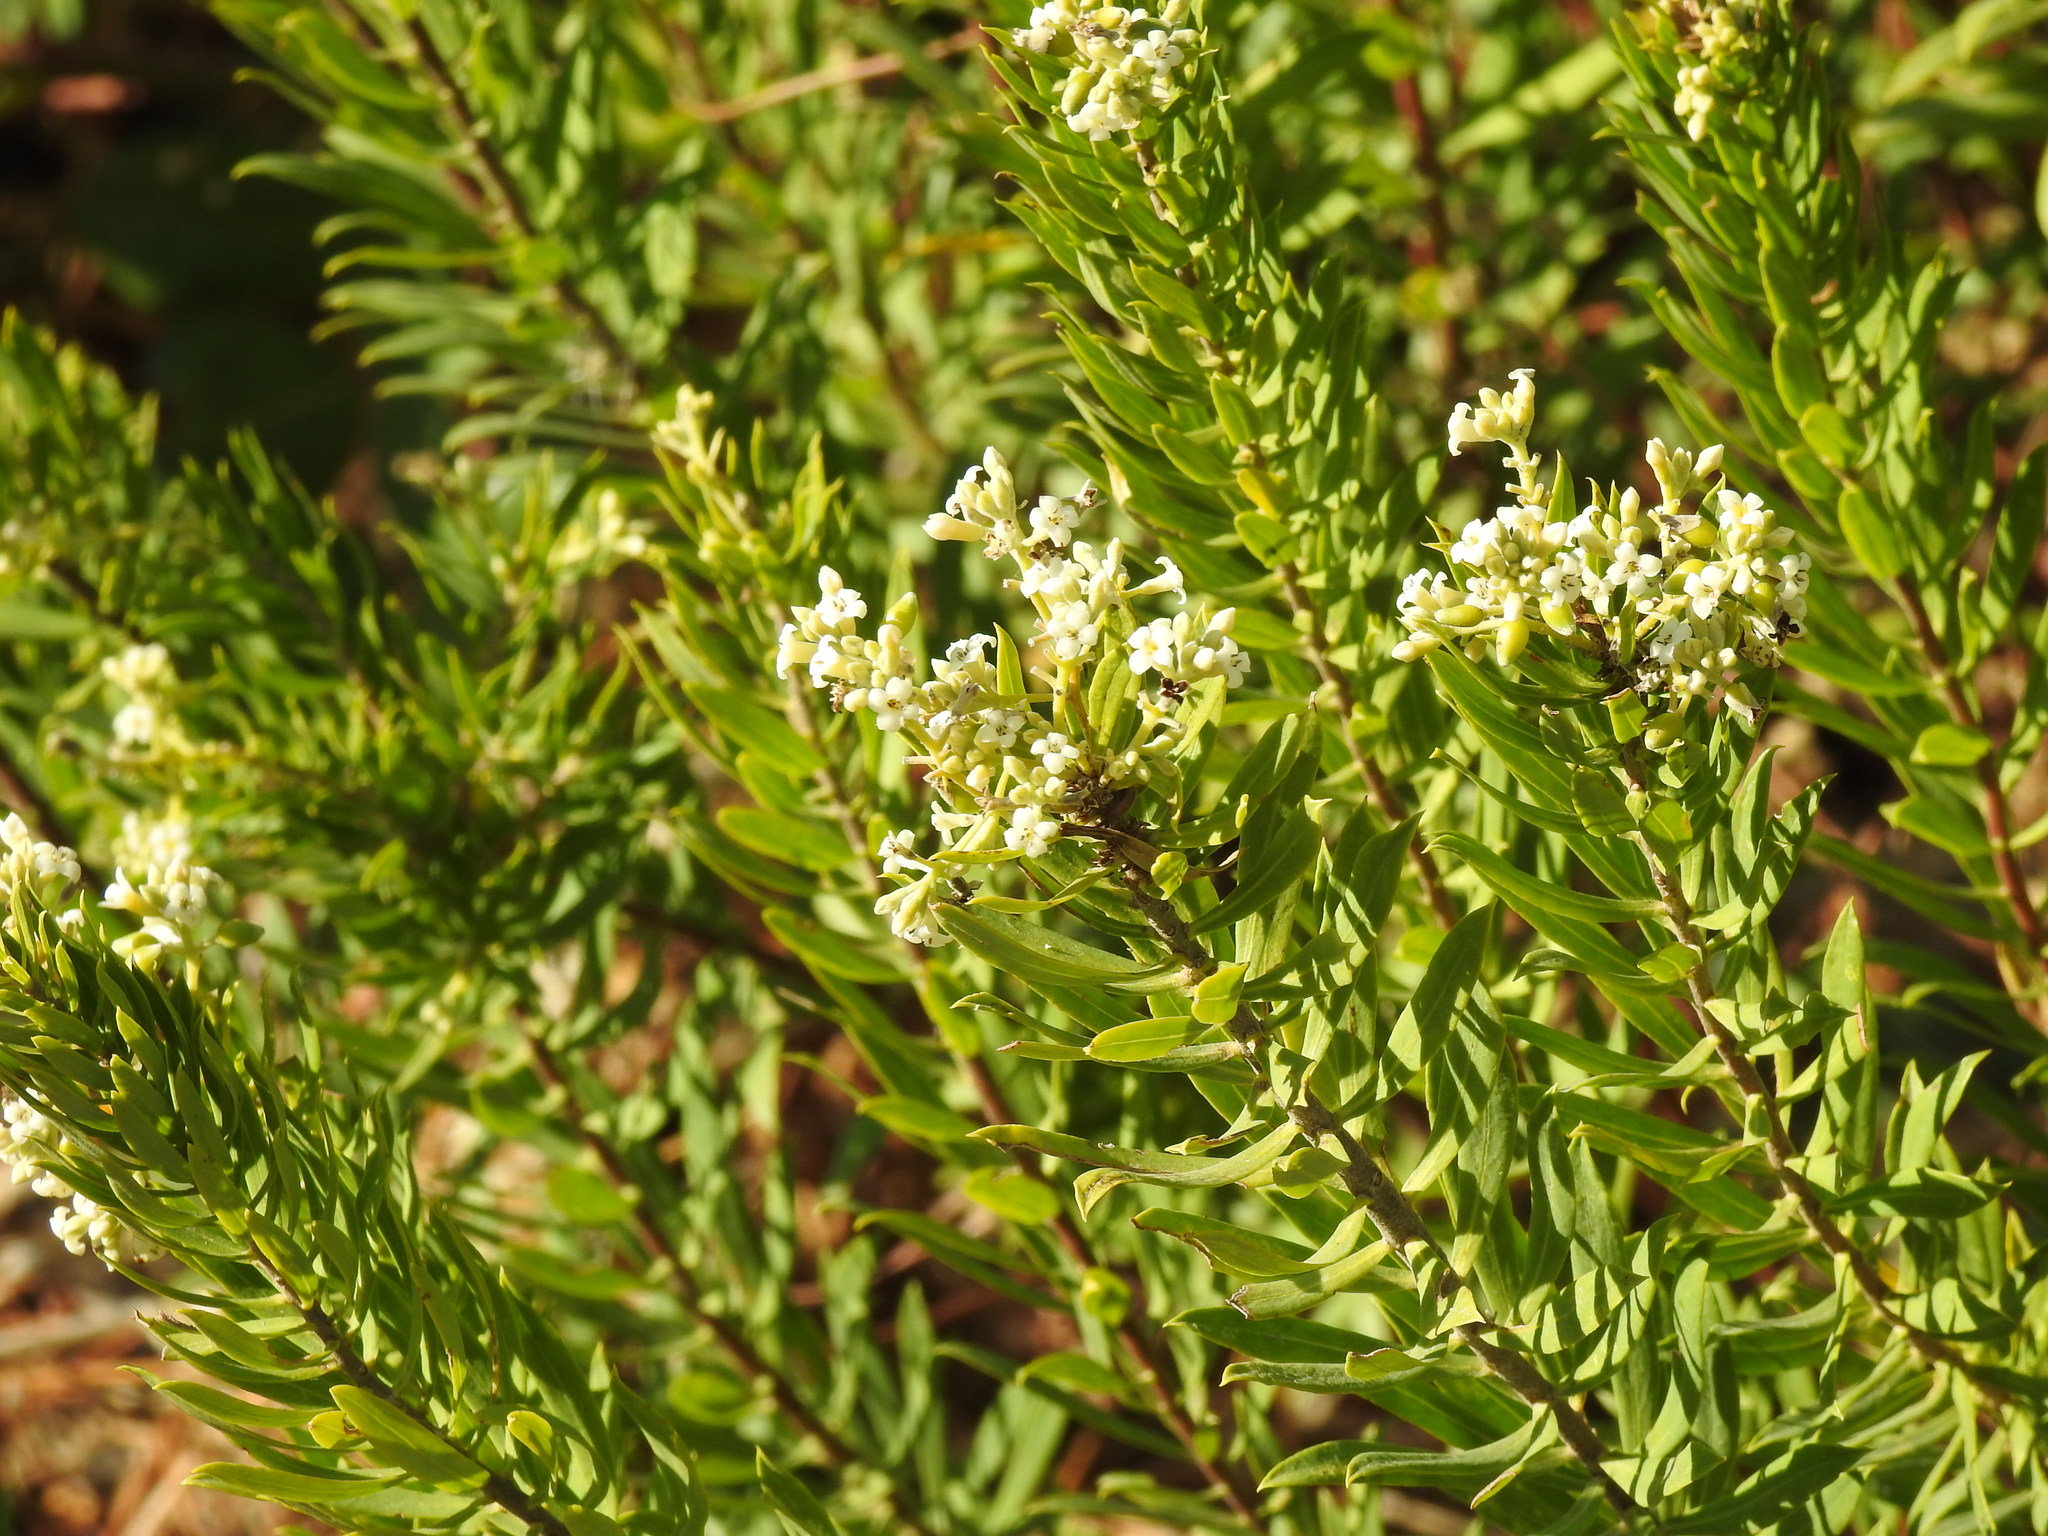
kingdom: Plantae
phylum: Tracheophyta
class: Magnoliopsida
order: Malvales
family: Thymelaeaceae
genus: Daphne
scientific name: Daphne gnidium
